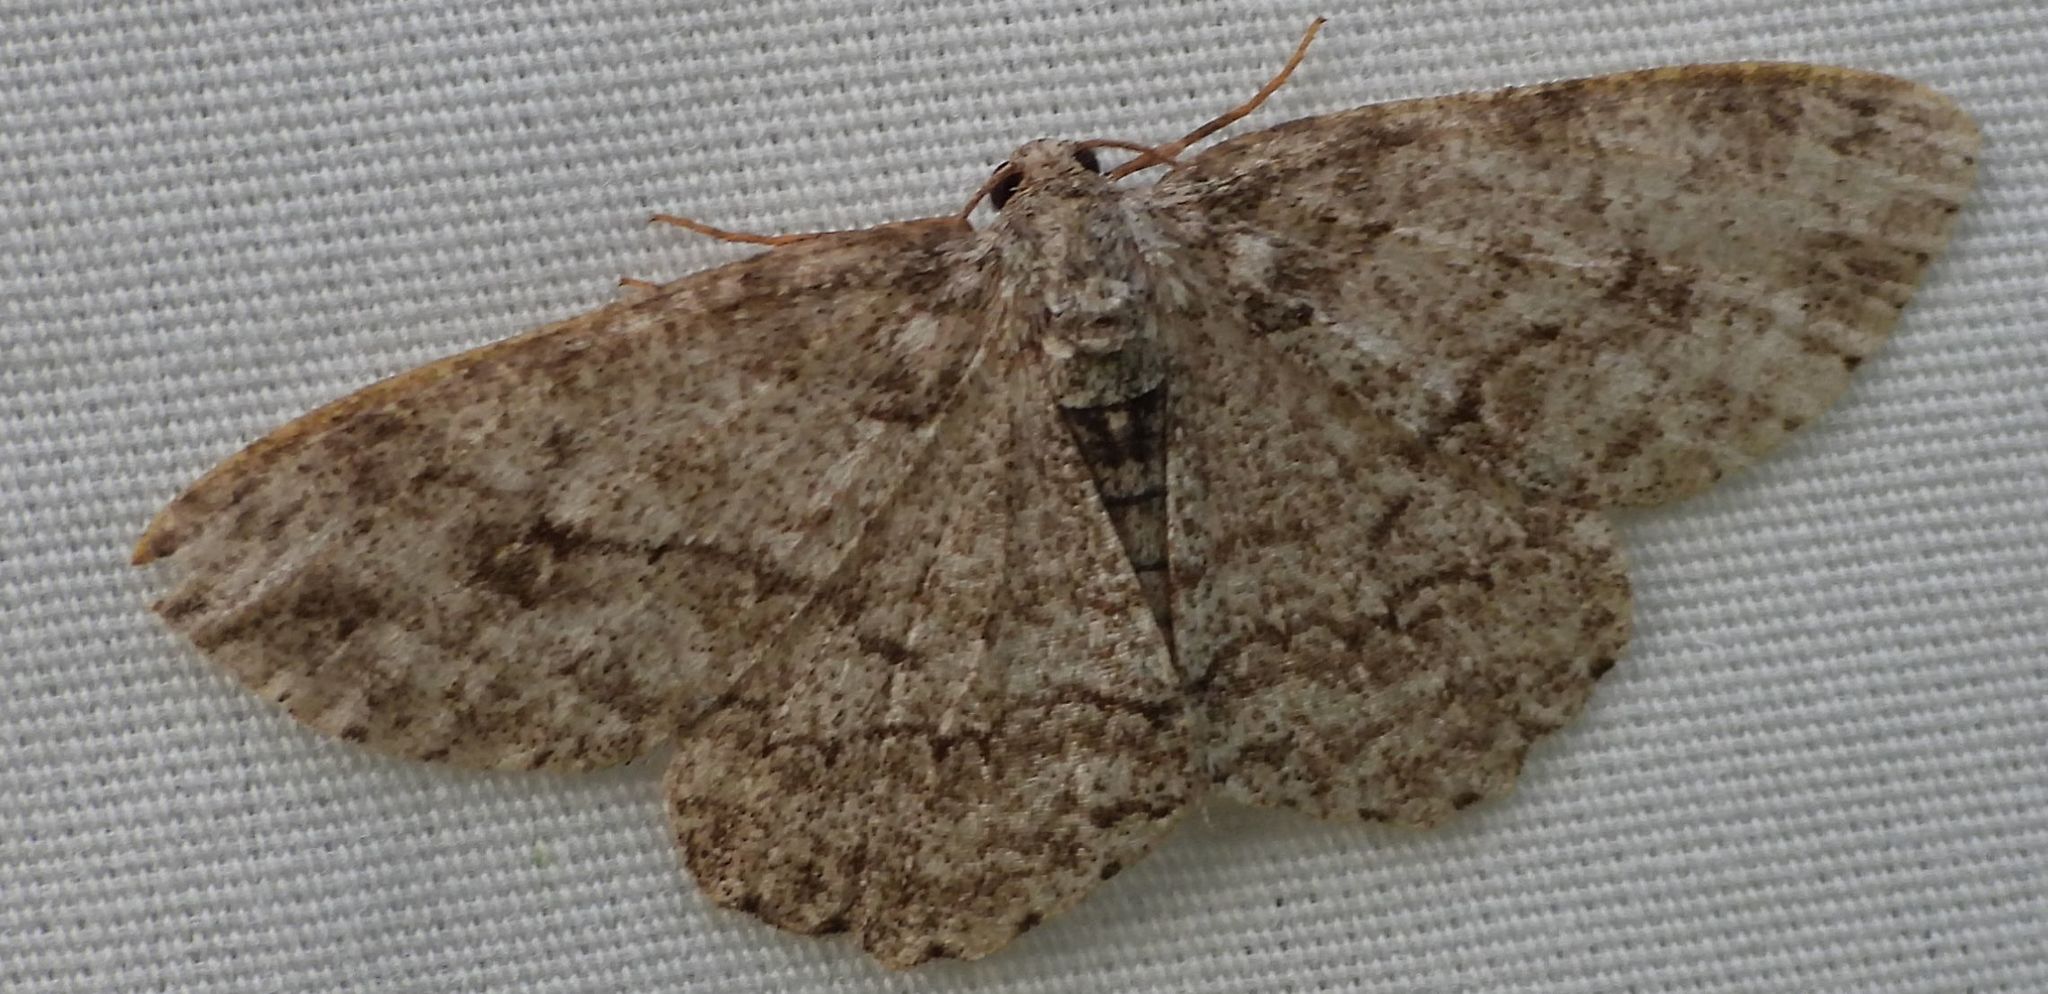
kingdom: Animalia
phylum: Arthropoda
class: Insecta
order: Lepidoptera
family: Geometridae
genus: Ectropis
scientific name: Ectropis crepuscularia
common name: Engrailed
